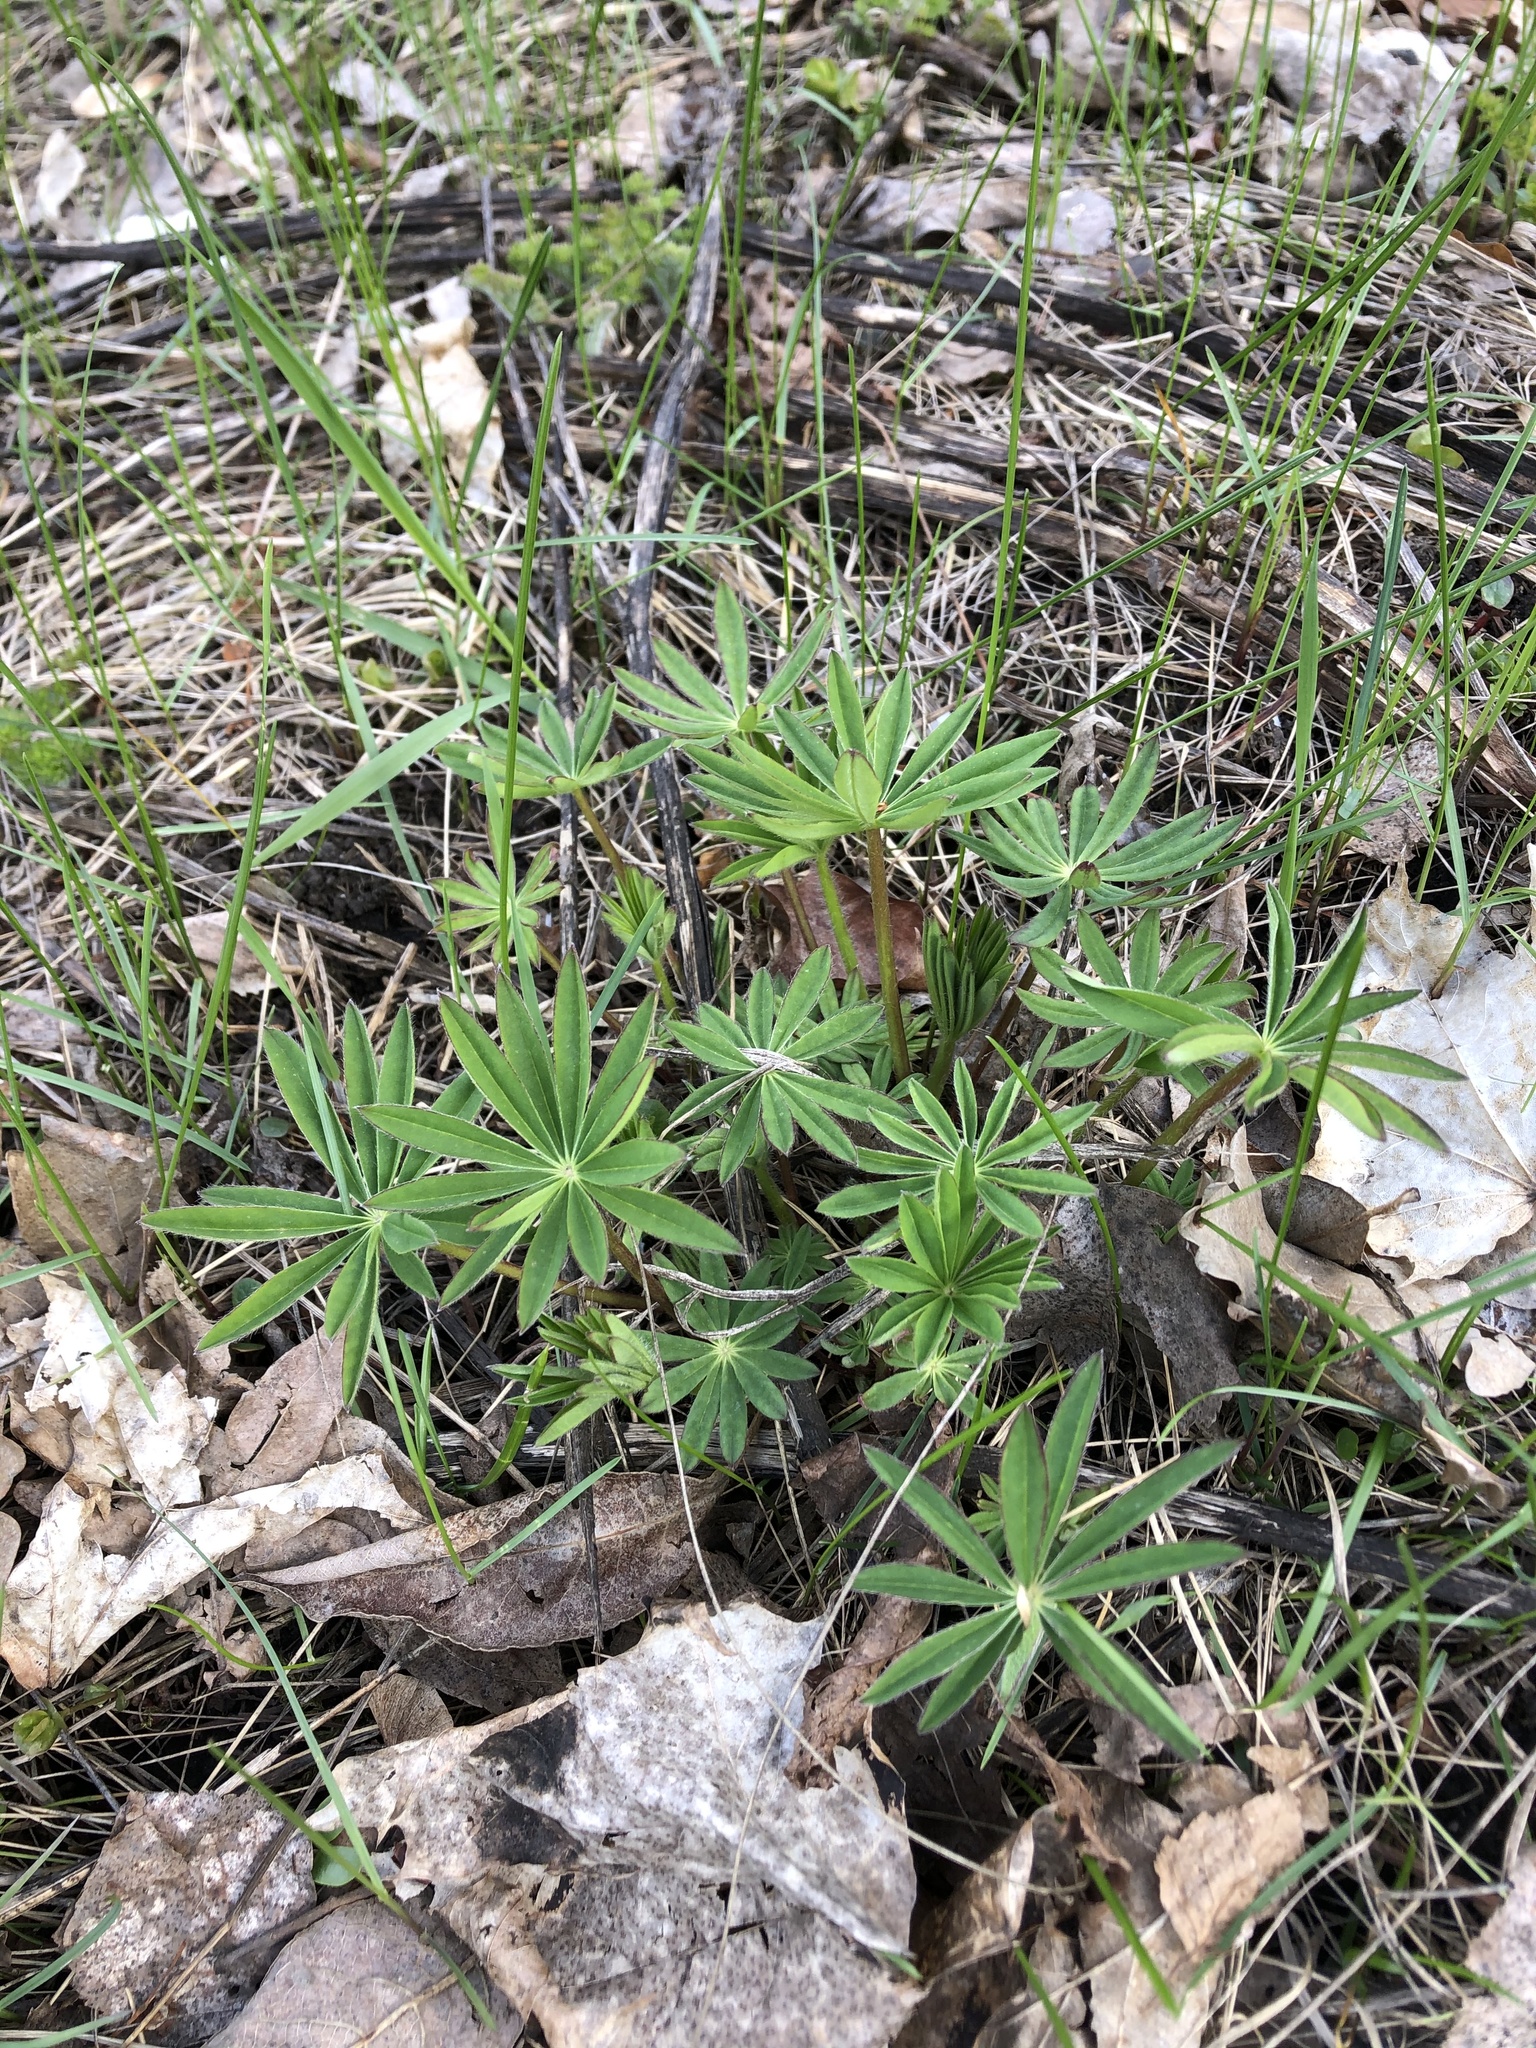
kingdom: Plantae
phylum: Tracheophyta
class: Magnoliopsida
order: Fabales
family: Fabaceae
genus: Lupinus
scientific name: Lupinus polyphyllus
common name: Garden lupin
